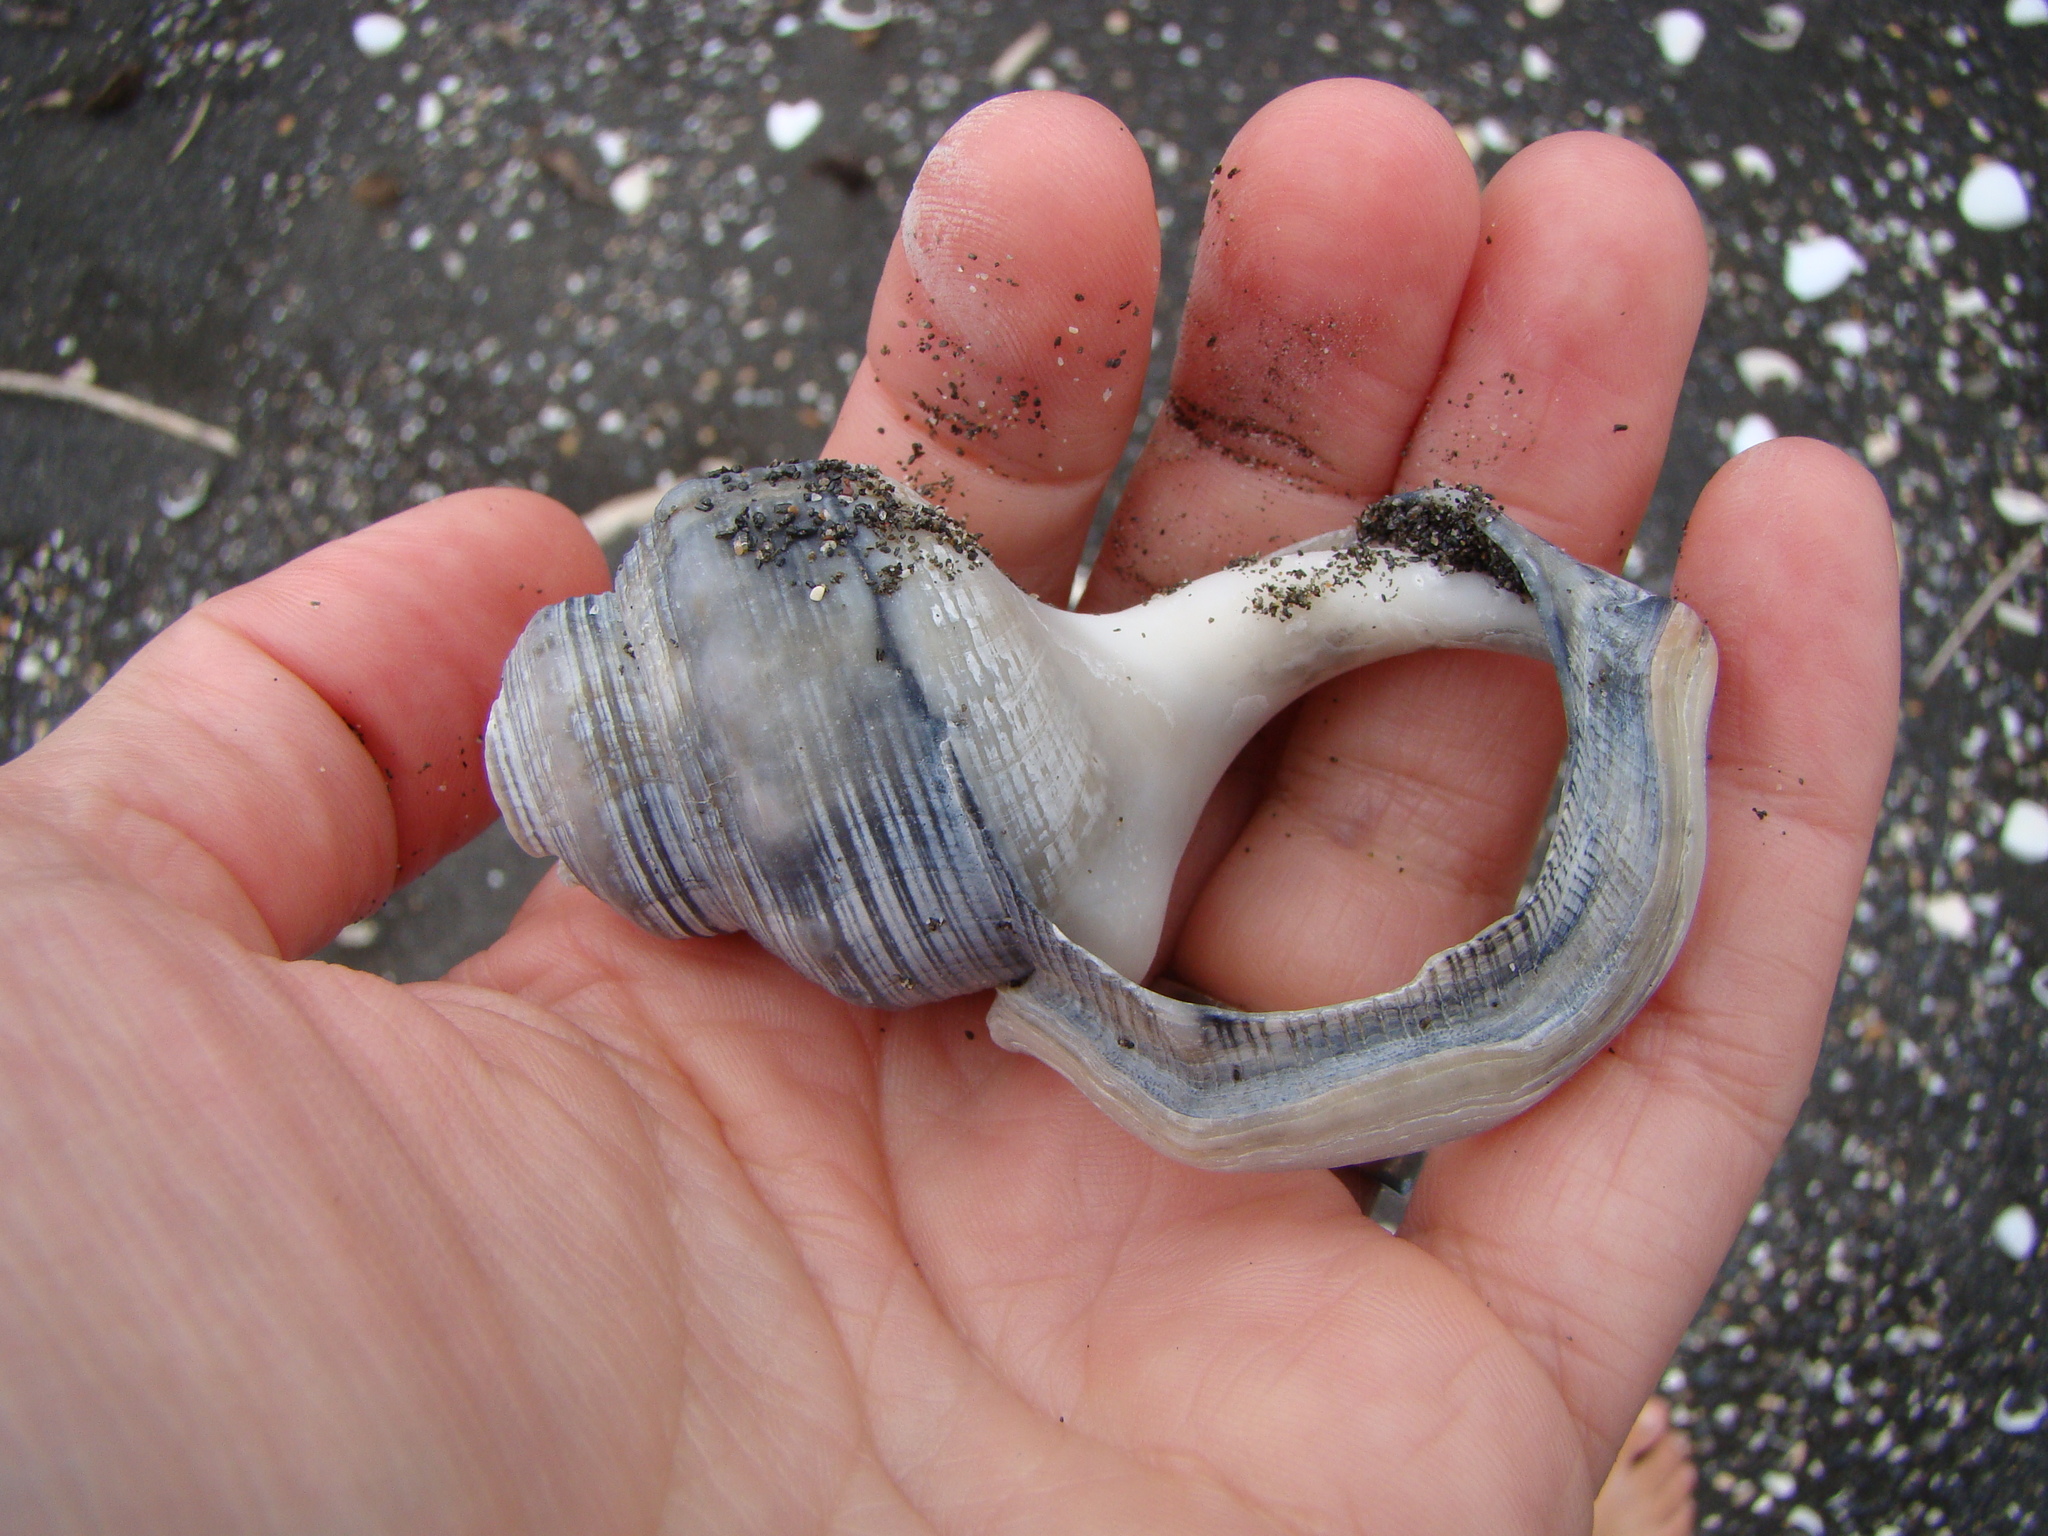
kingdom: Animalia
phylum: Mollusca
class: Gastropoda
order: Littorinimorpha
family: Struthiolariidae
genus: Struthiolaria
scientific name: Struthiolaria papulosa
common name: Large ostrich foot
